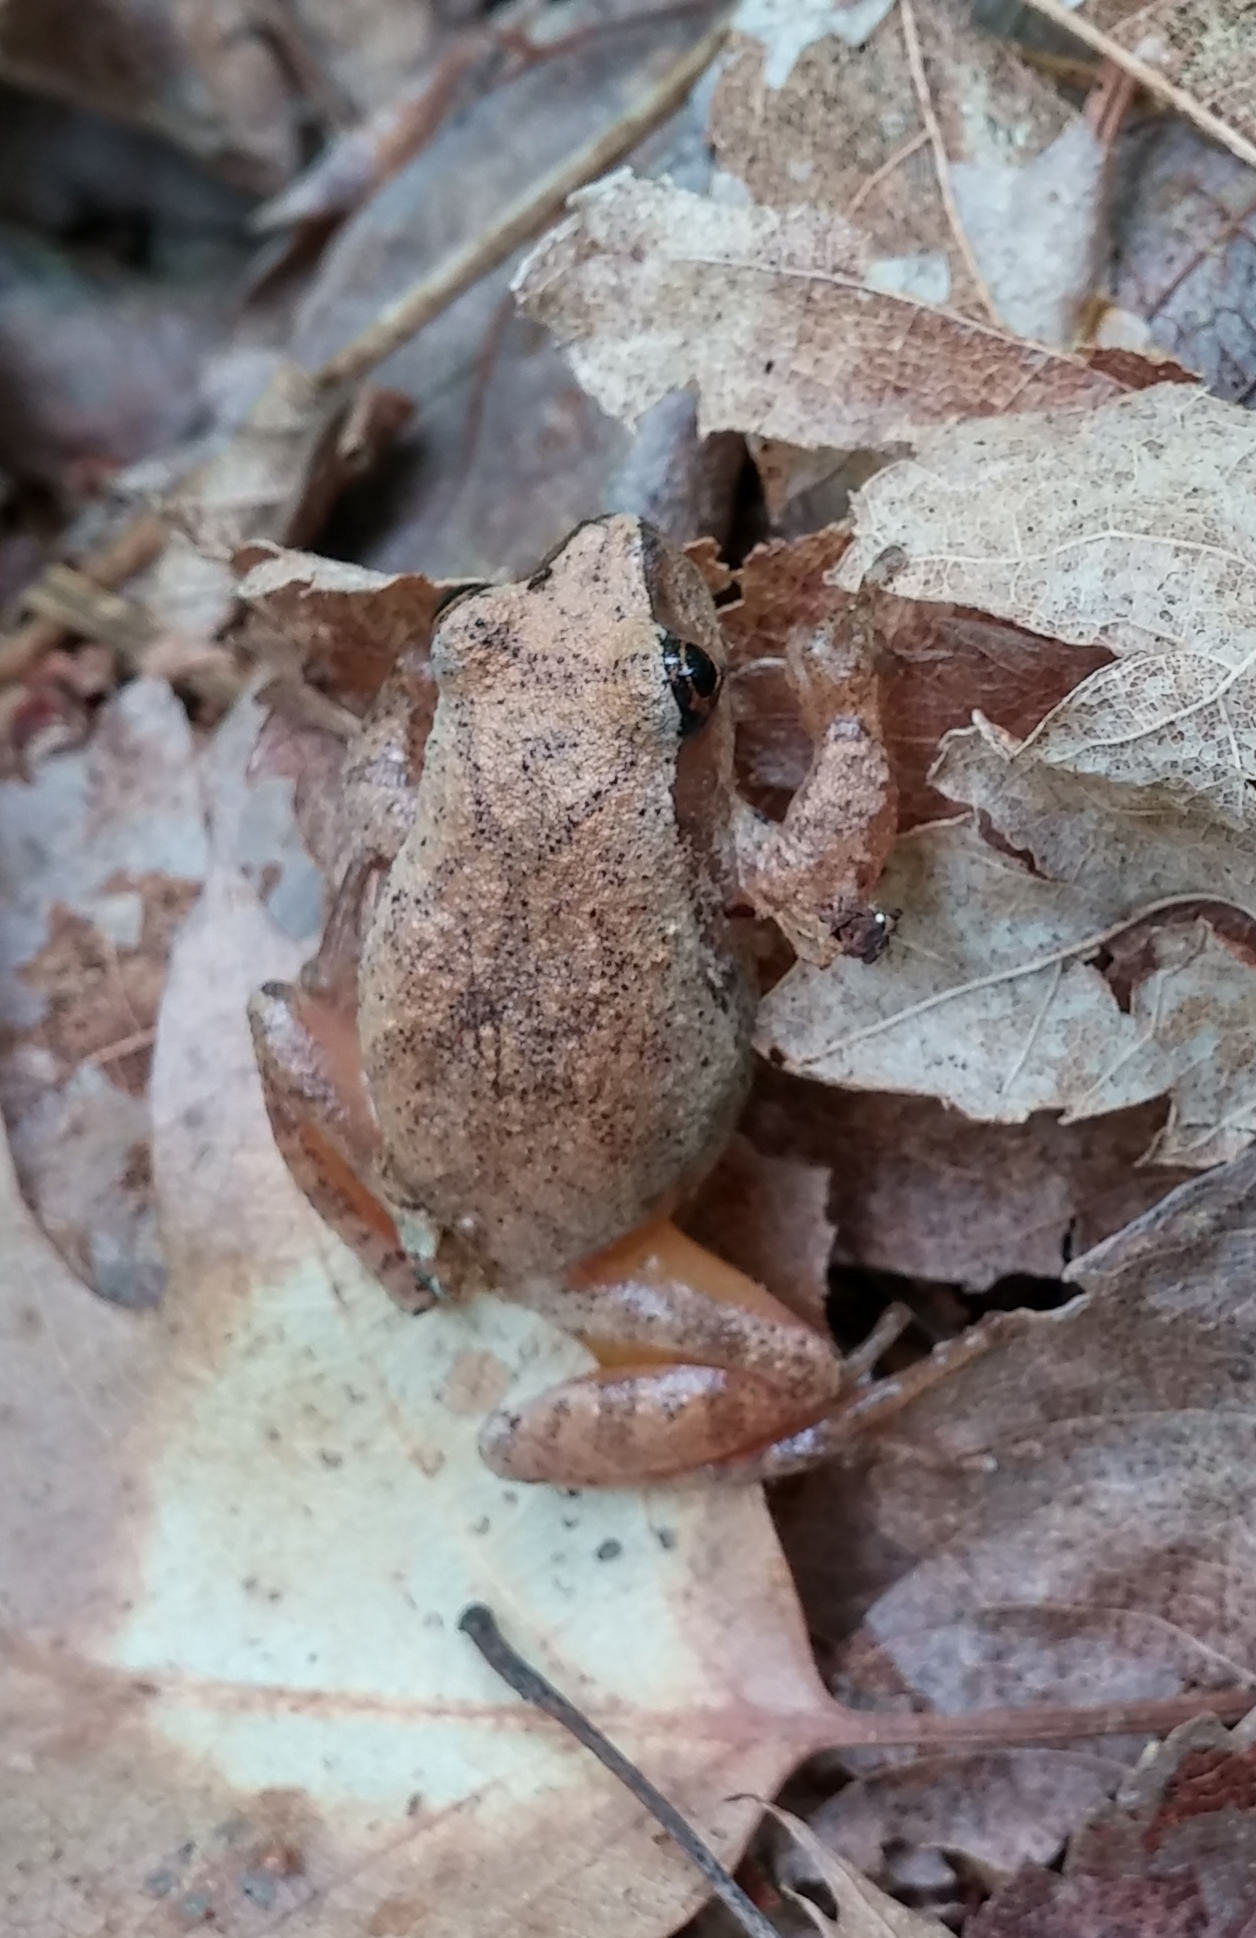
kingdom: Animalia
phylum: Chordata
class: Amphibia
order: Anura
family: Hylidae
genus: Pseudacris
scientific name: Pseudacris crucifer
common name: Spring peeper
